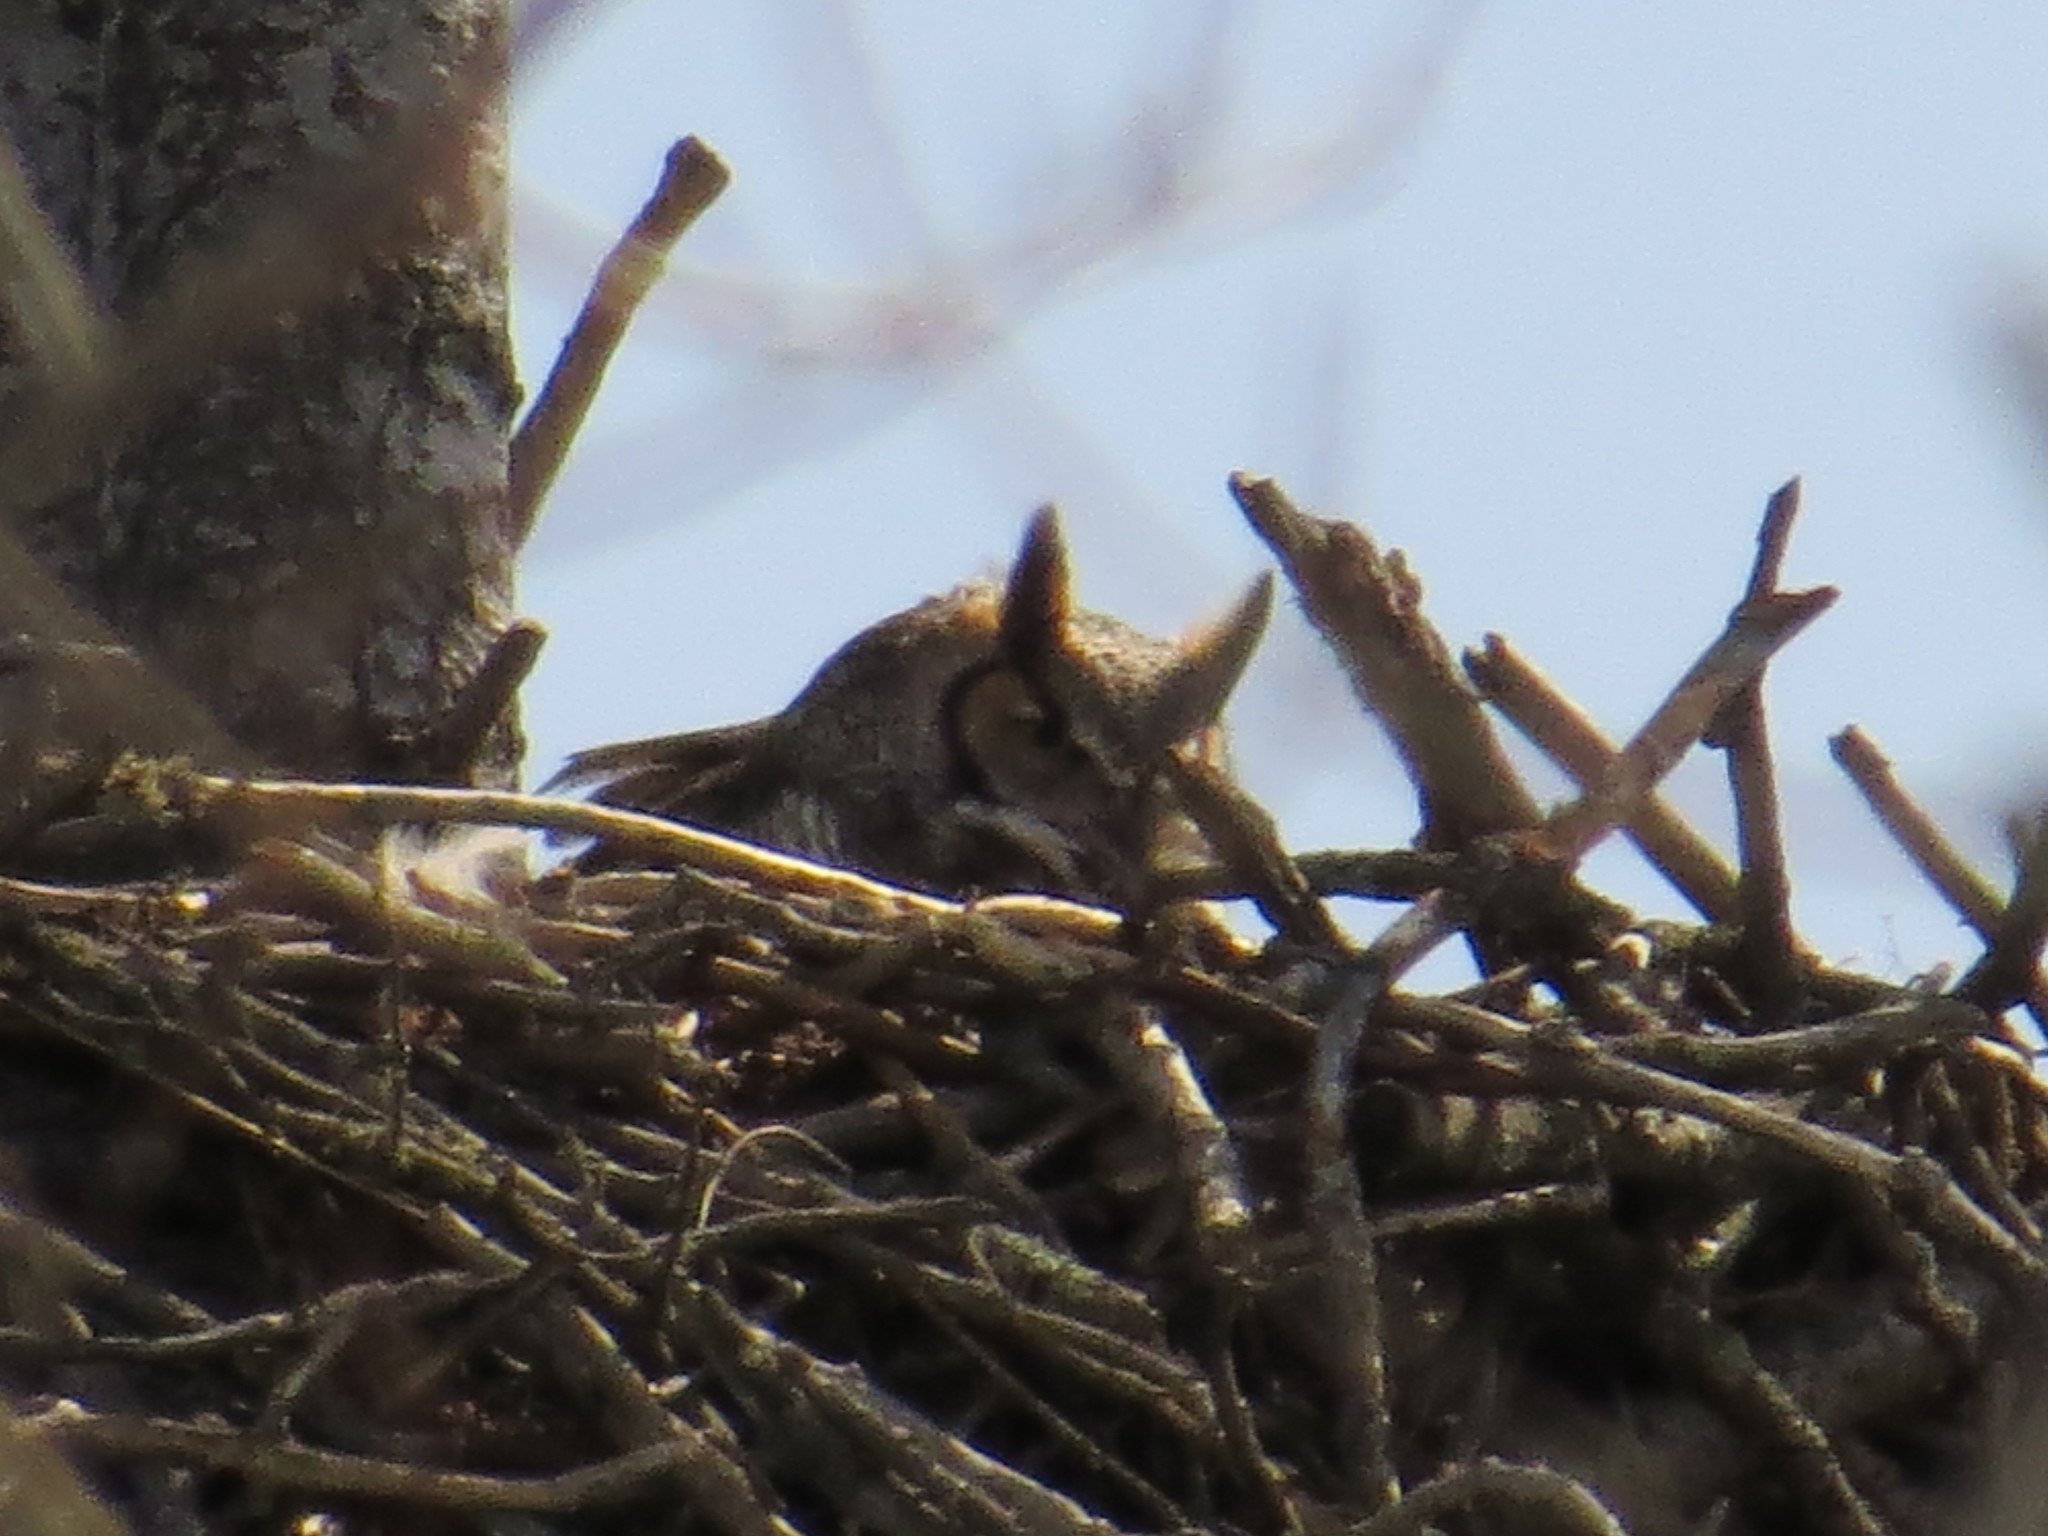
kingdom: Animalia
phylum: Chordata
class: Aves
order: Strigiformes
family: Strigidae
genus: Bubo
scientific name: Bubo virginianus
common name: Great horned owl
